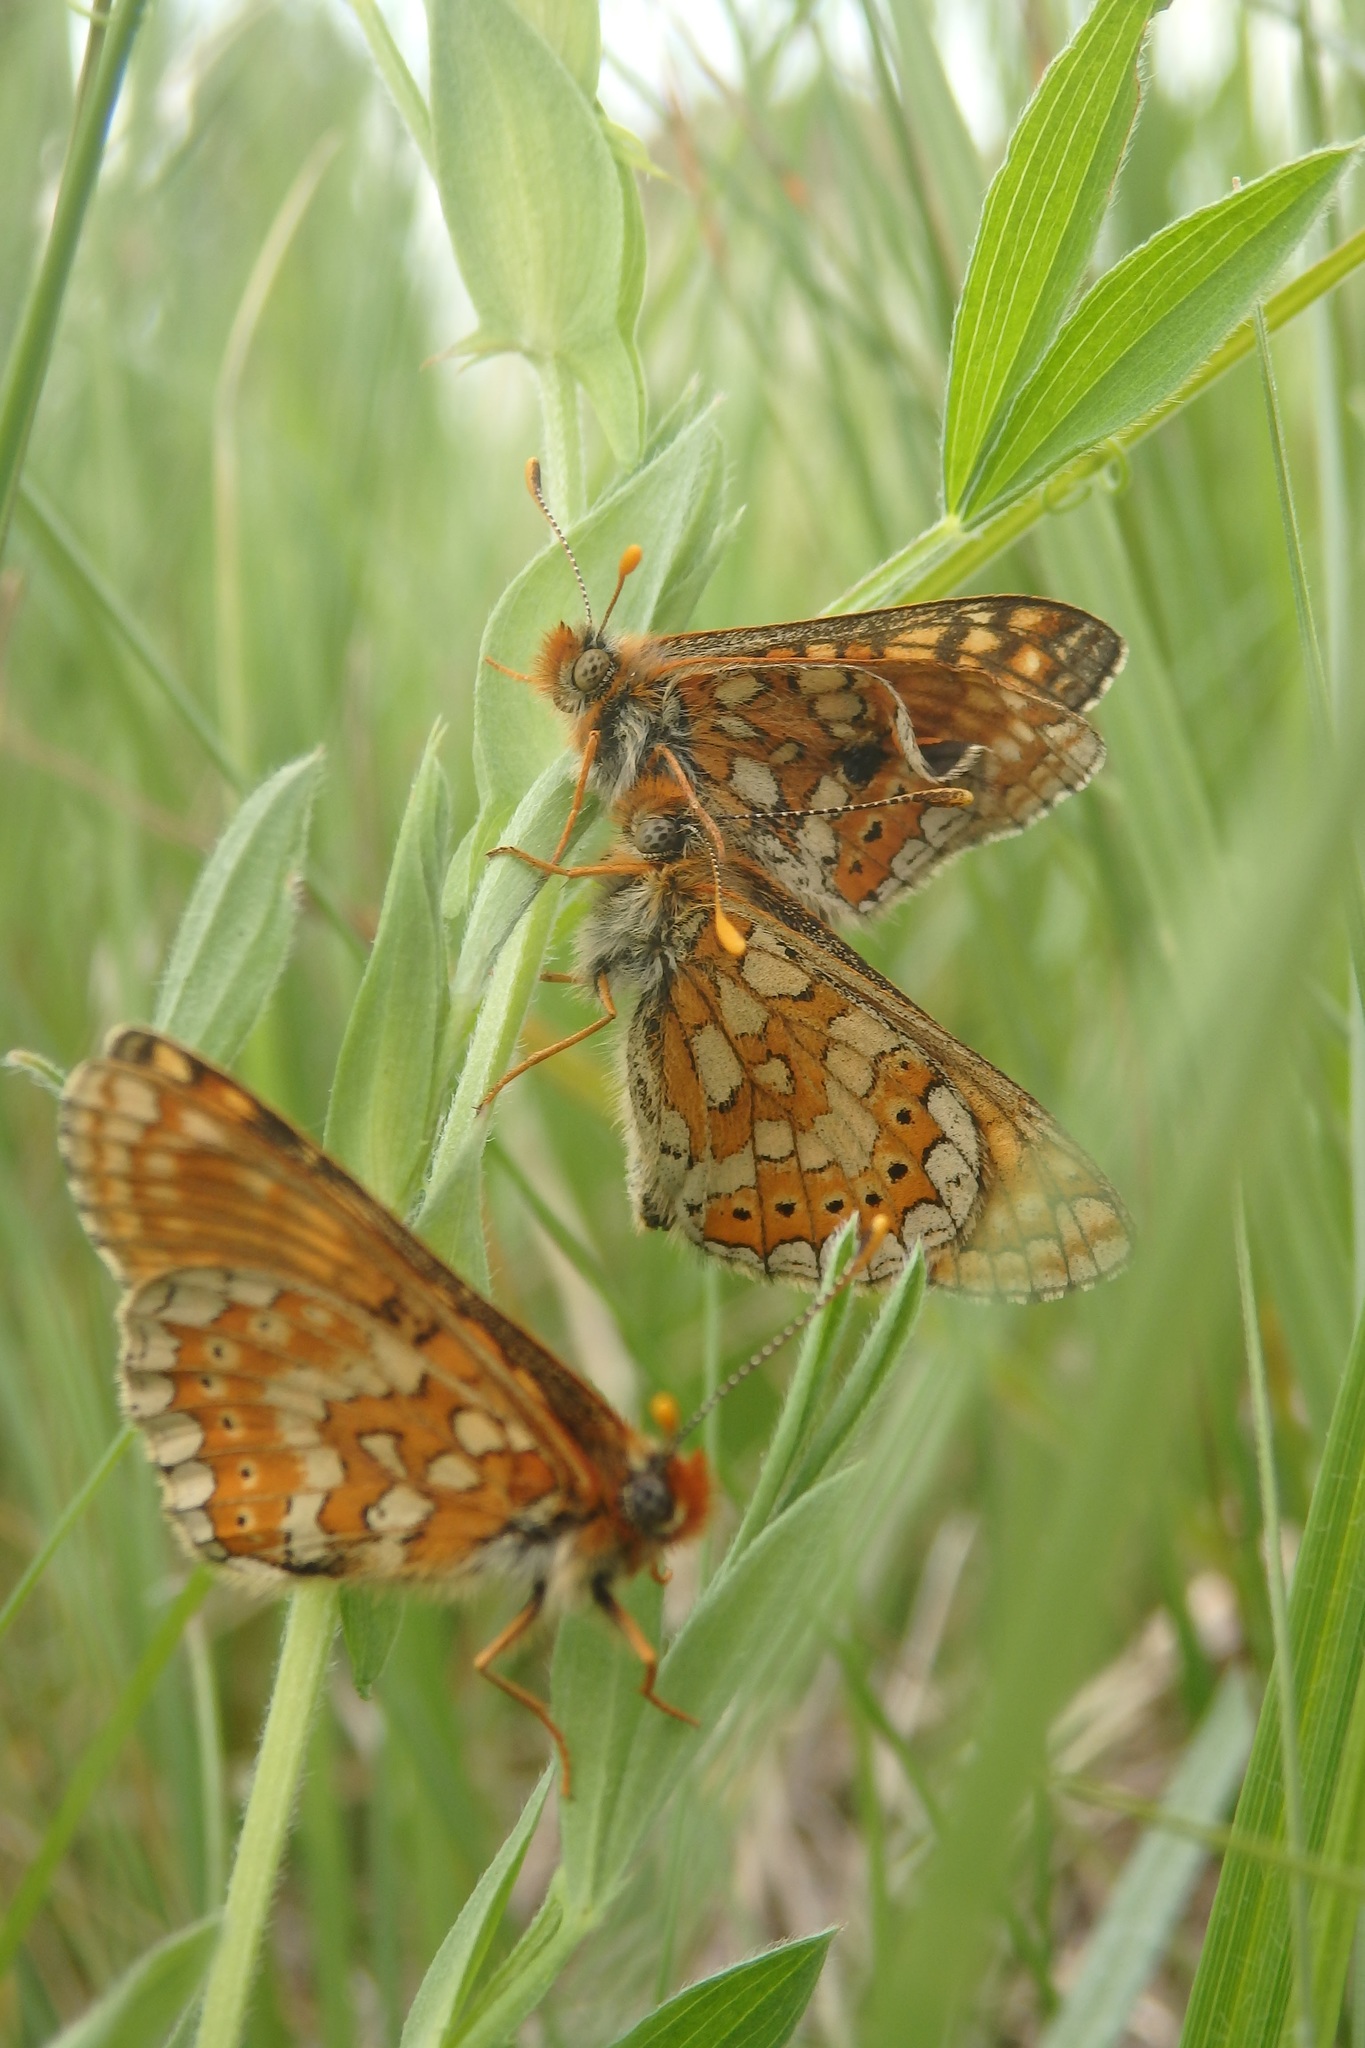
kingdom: Animalia
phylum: Arthropoda
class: Insecta
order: Lepidoptera
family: Nymphalidae
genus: Euphydryas
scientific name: Euphydryas aurinia
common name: Marsh fritillary
